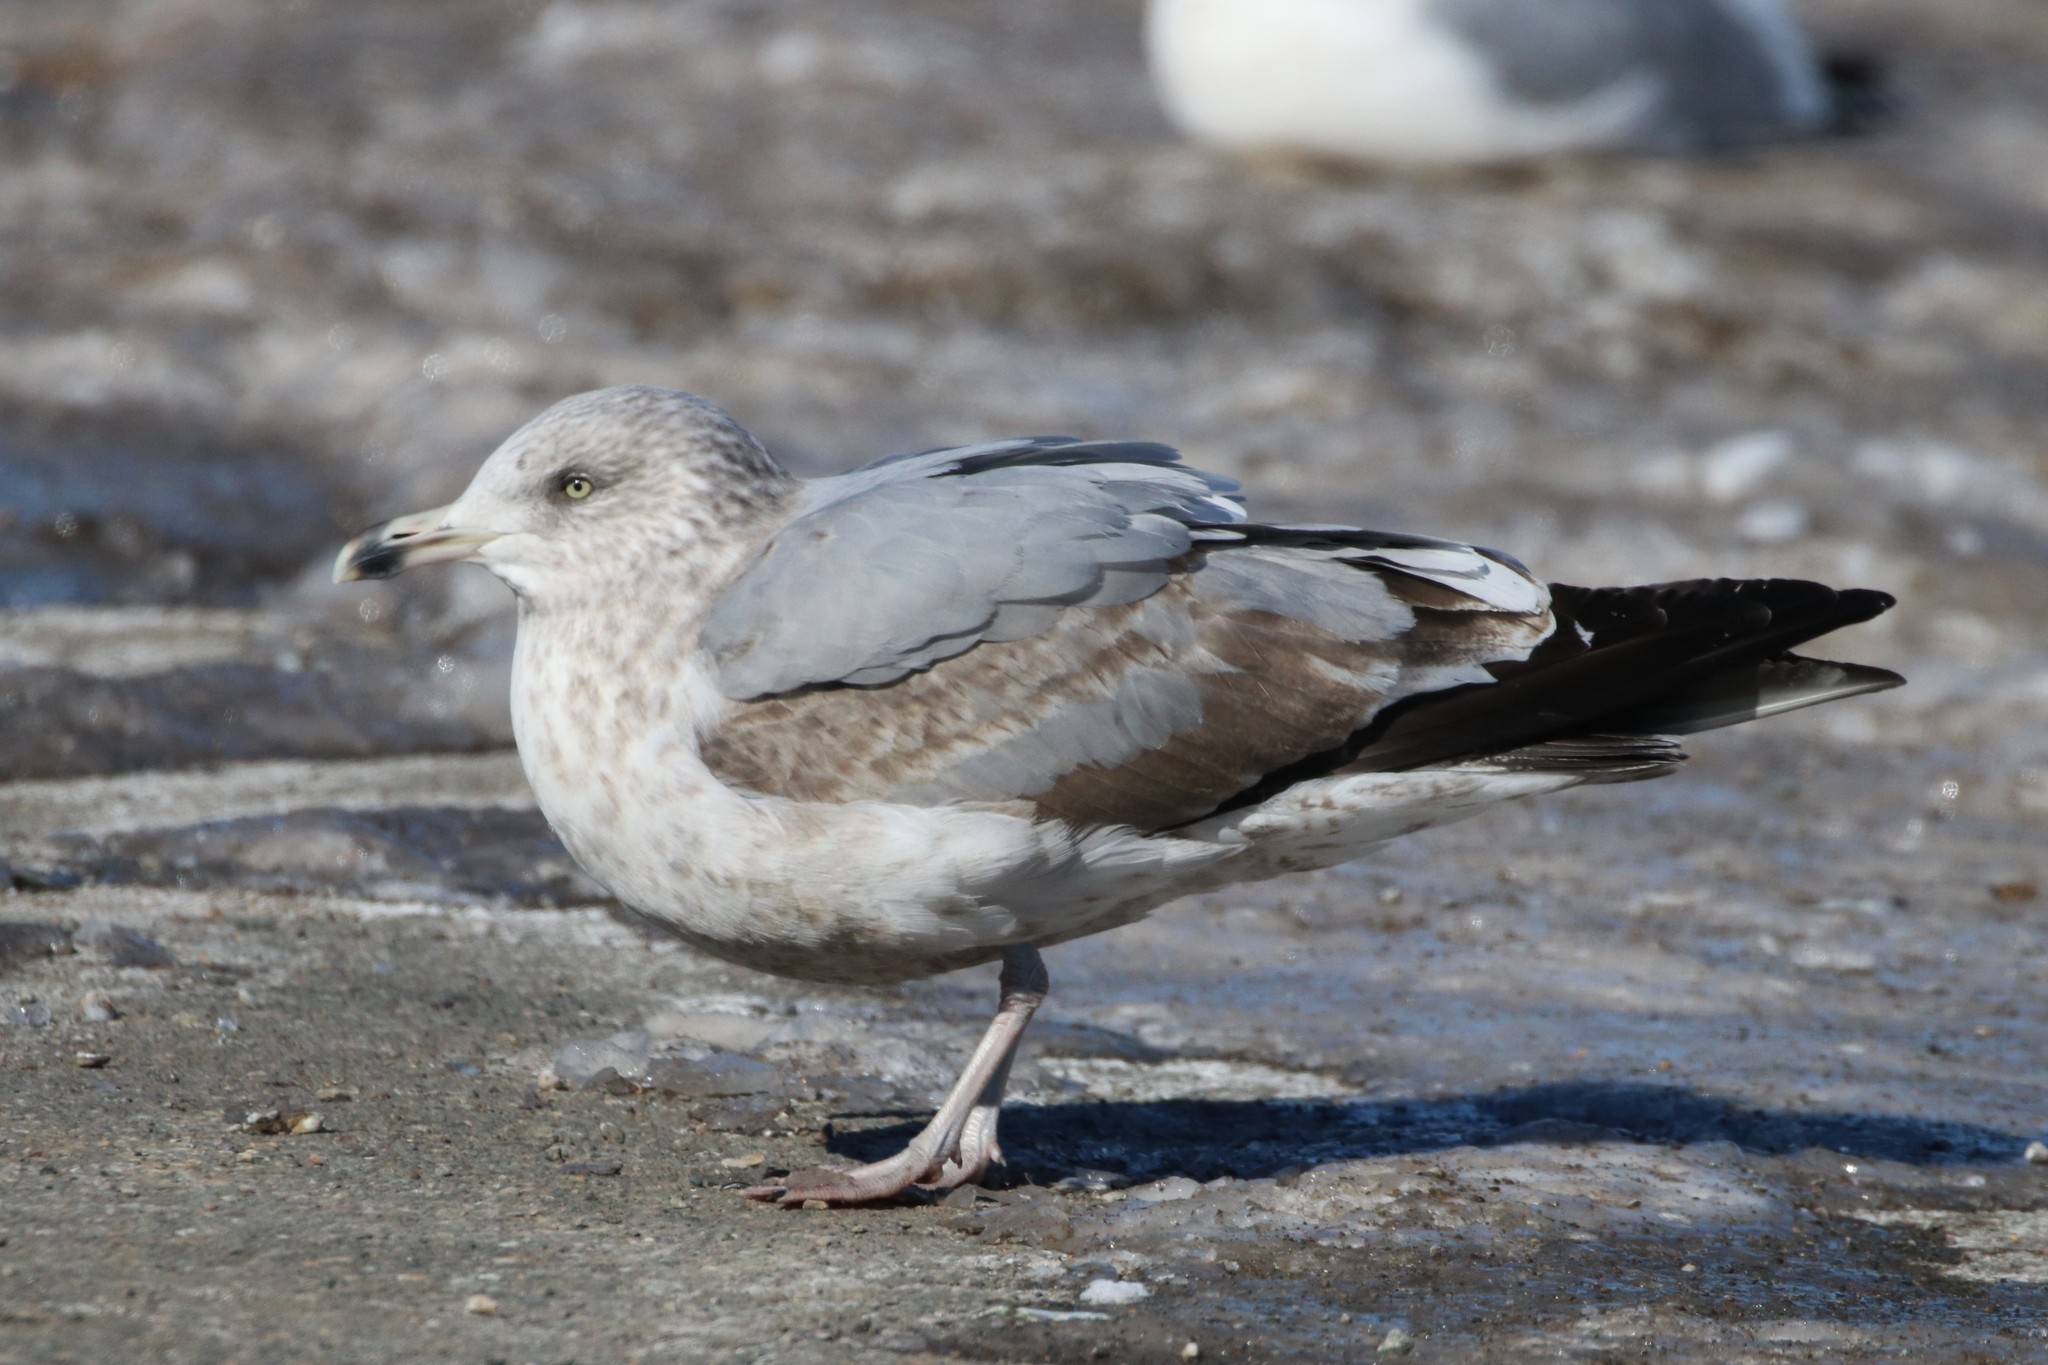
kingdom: Animalia
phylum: Chordata
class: Aves
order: Charadriiformes
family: Laridae
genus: Larus
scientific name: Larus argentatus
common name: Herring gull
